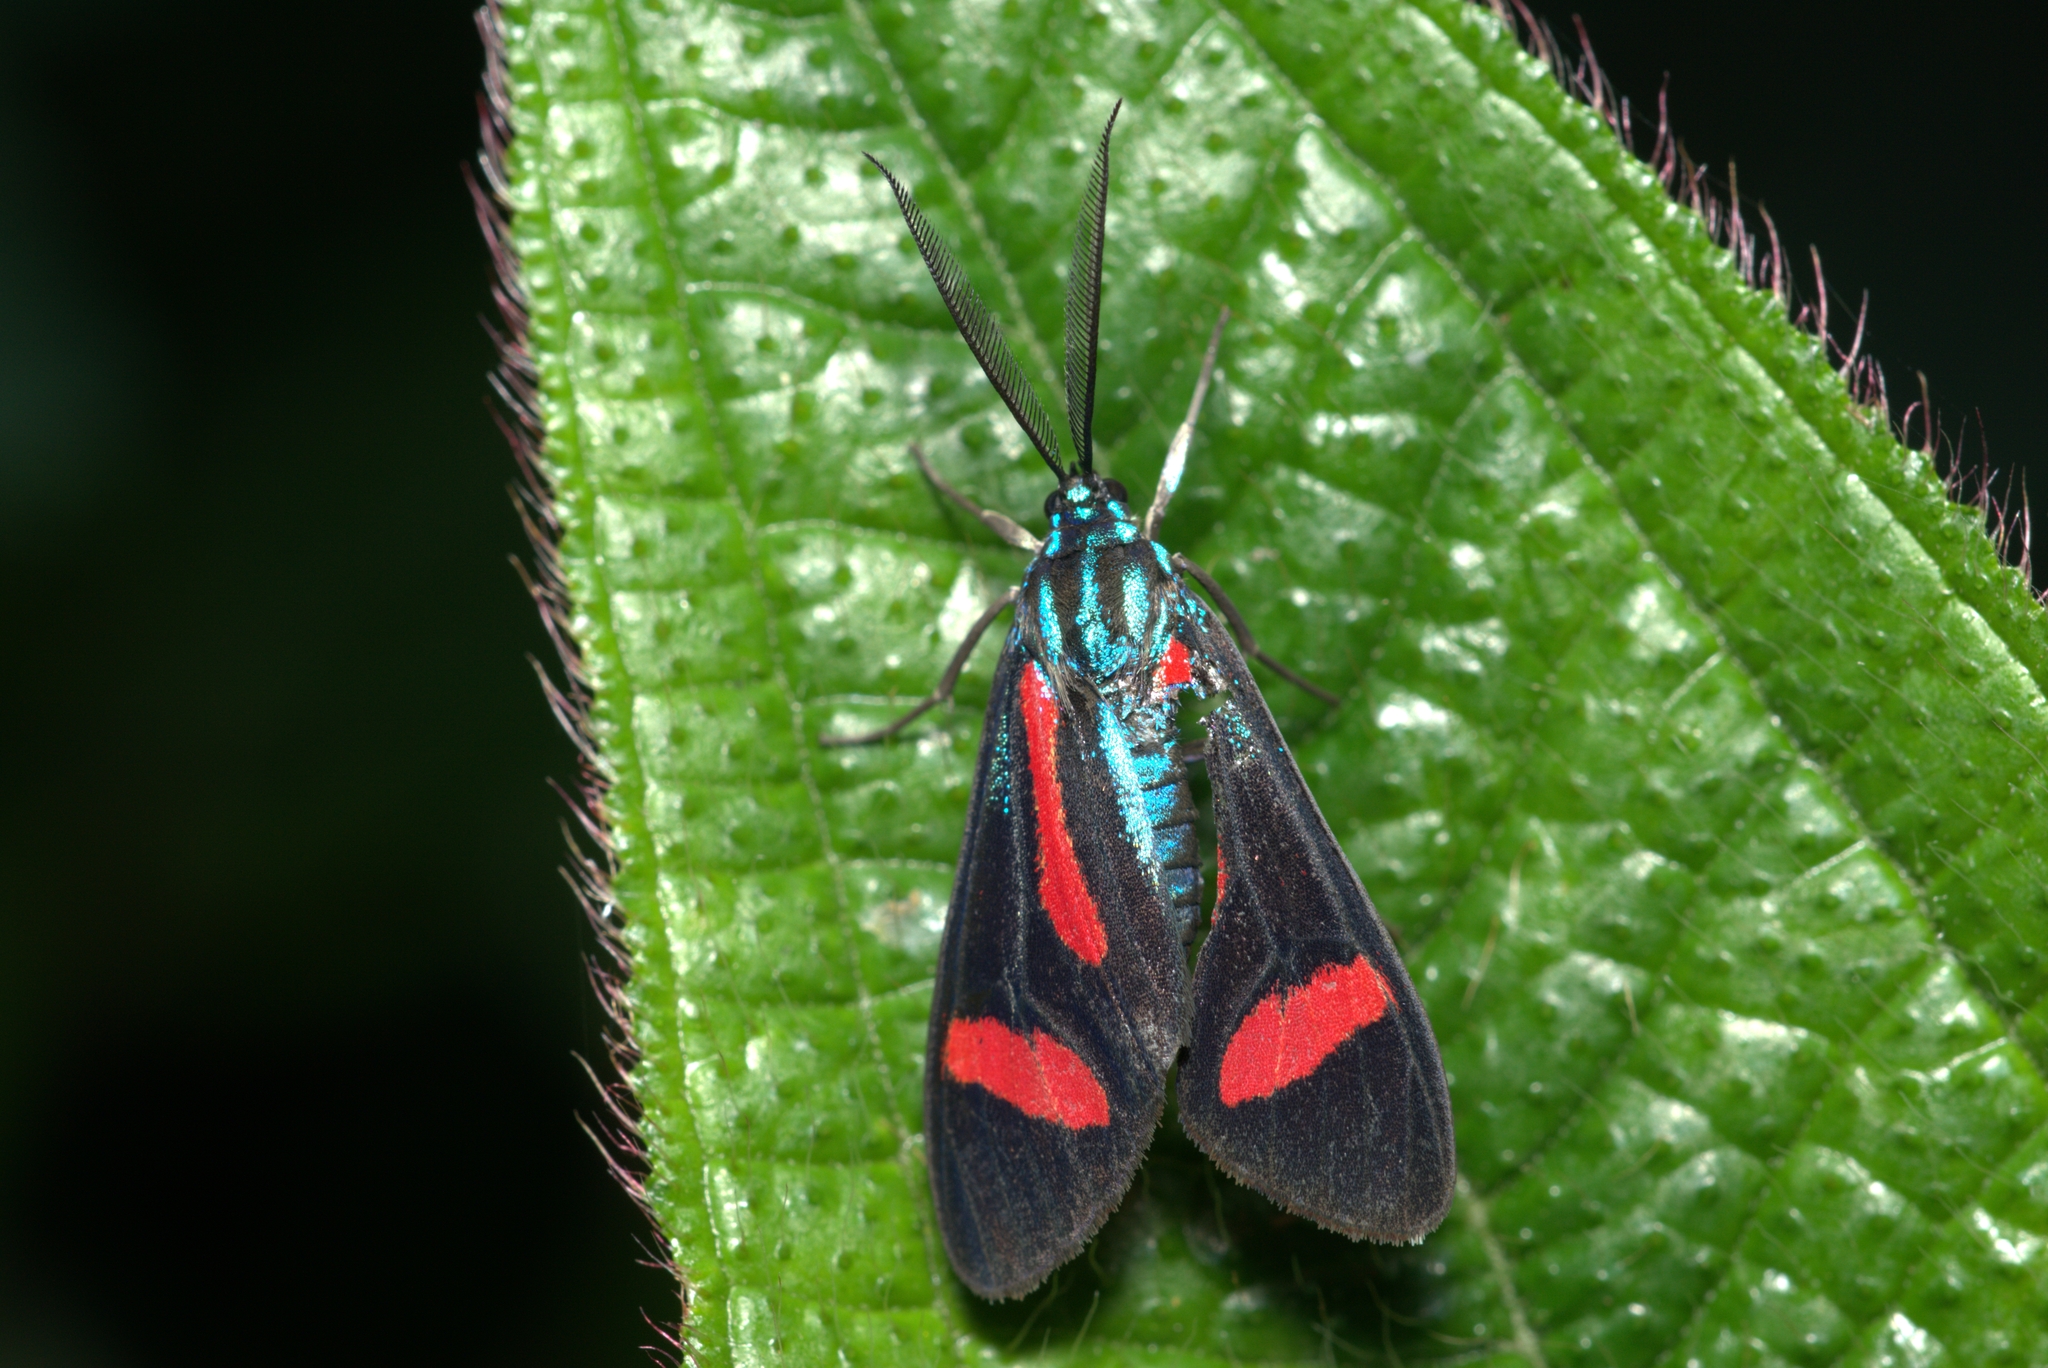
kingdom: Animalia
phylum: Arthropoda
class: Insecta
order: Lepidoptera
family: Erebidae
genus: Cyanopepla
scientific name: Cyanopepla jucunda
